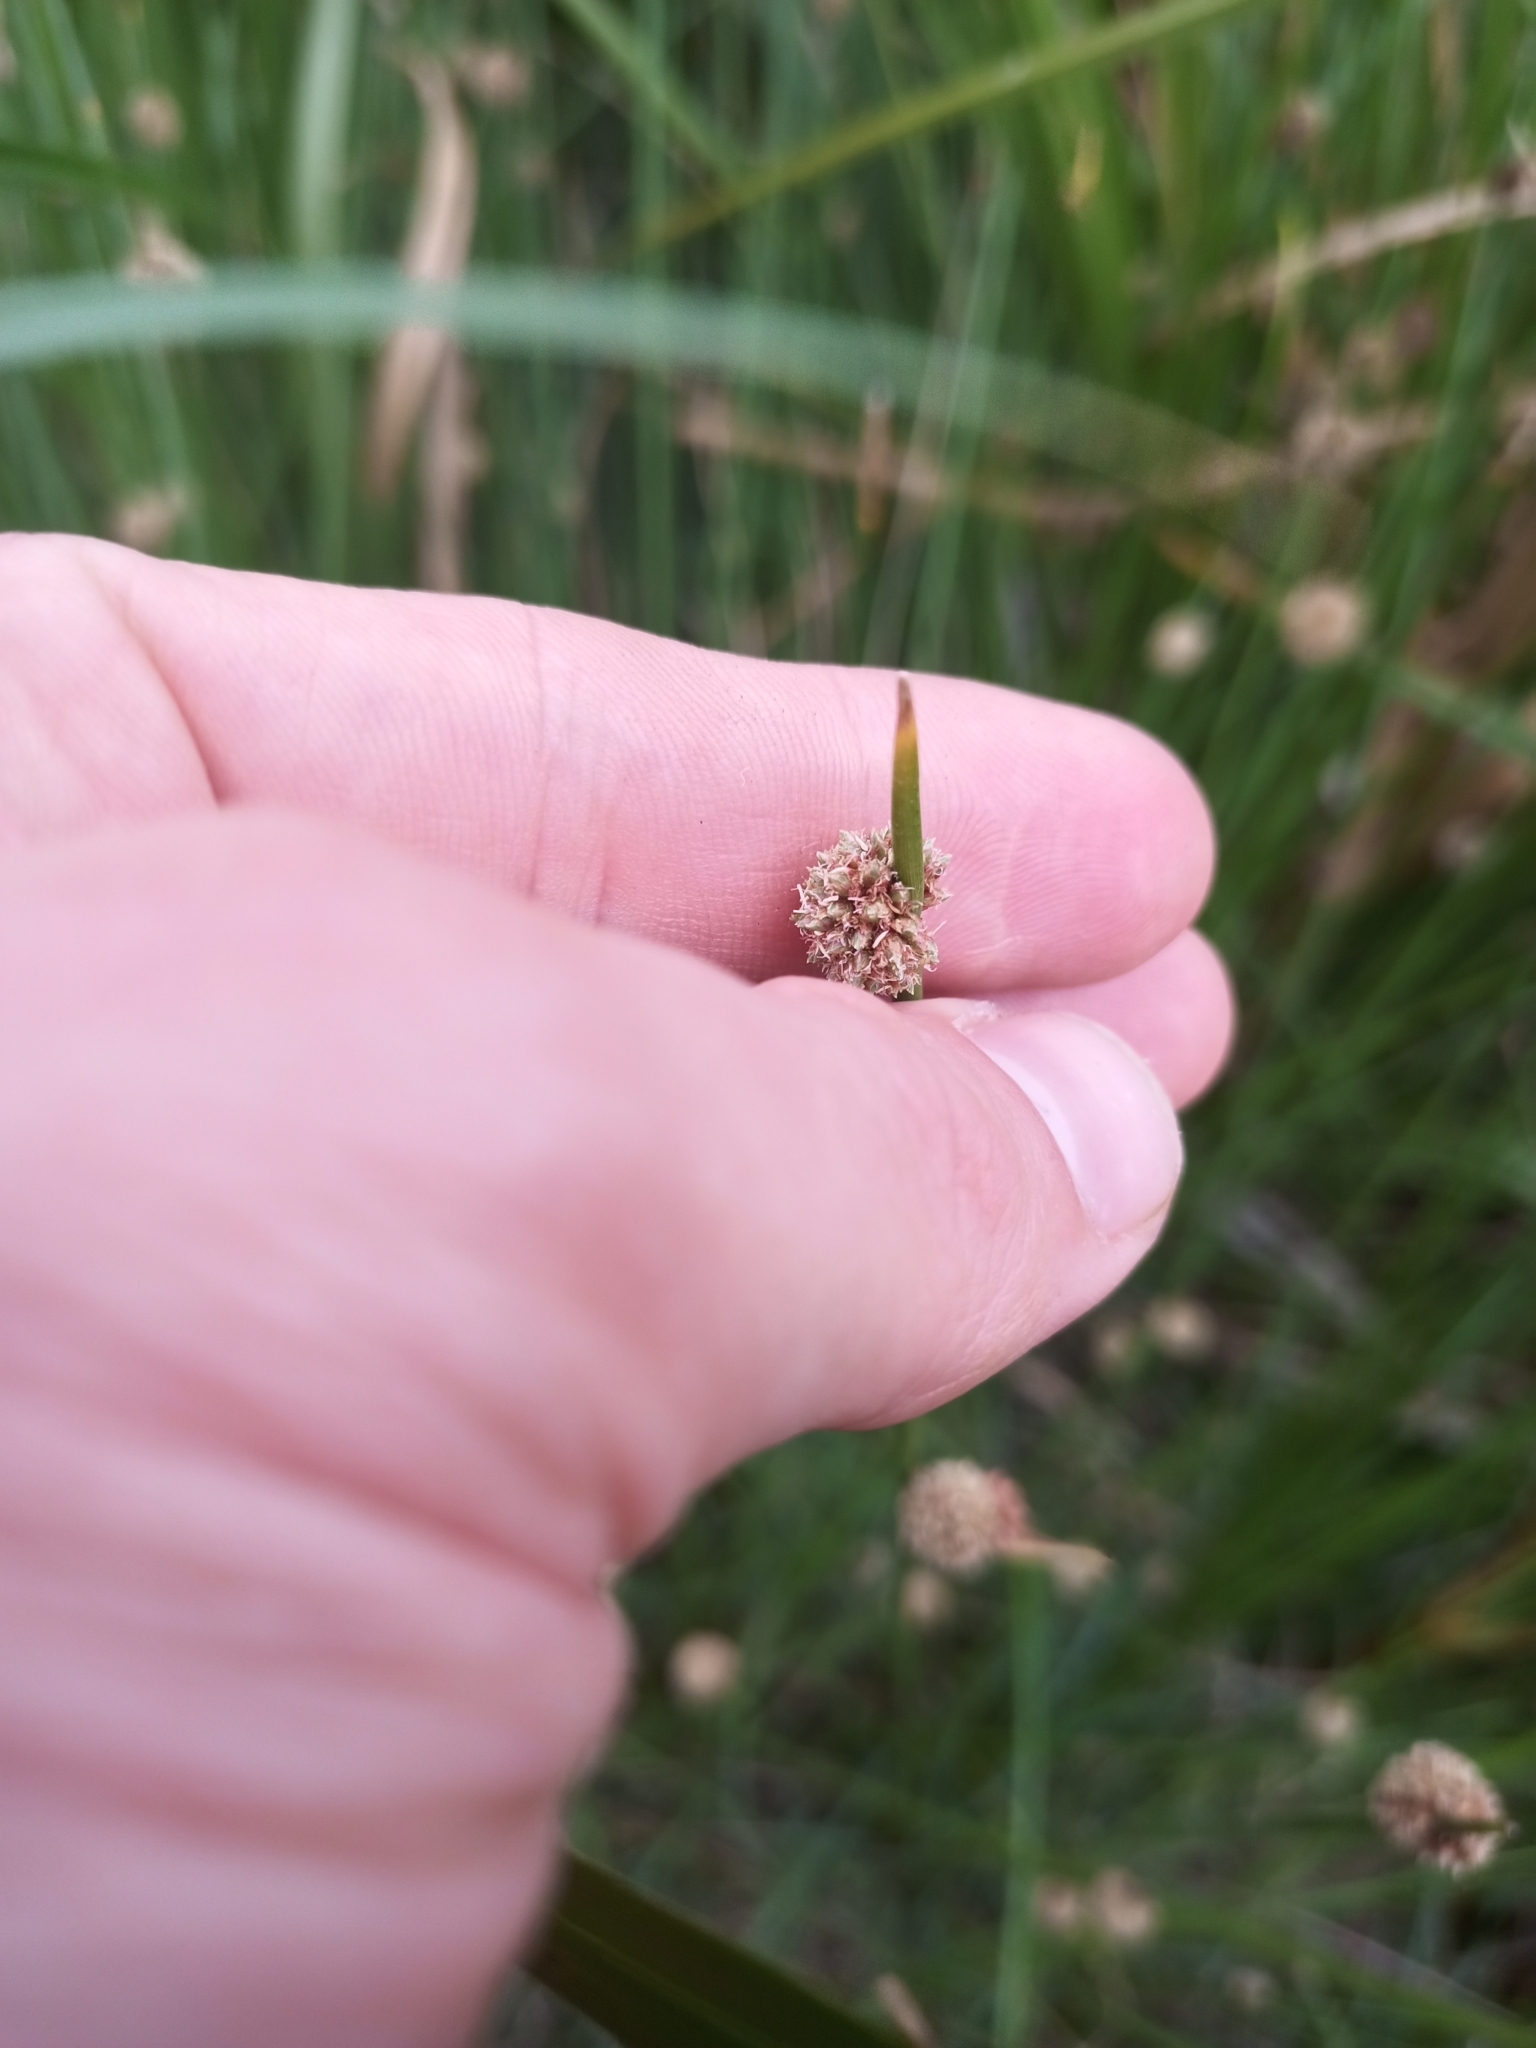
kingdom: Plantae
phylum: Tracheophyta
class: Liliopsida
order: Poales
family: Cyperaceae
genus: Ficinia
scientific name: Ficinia nodosa
